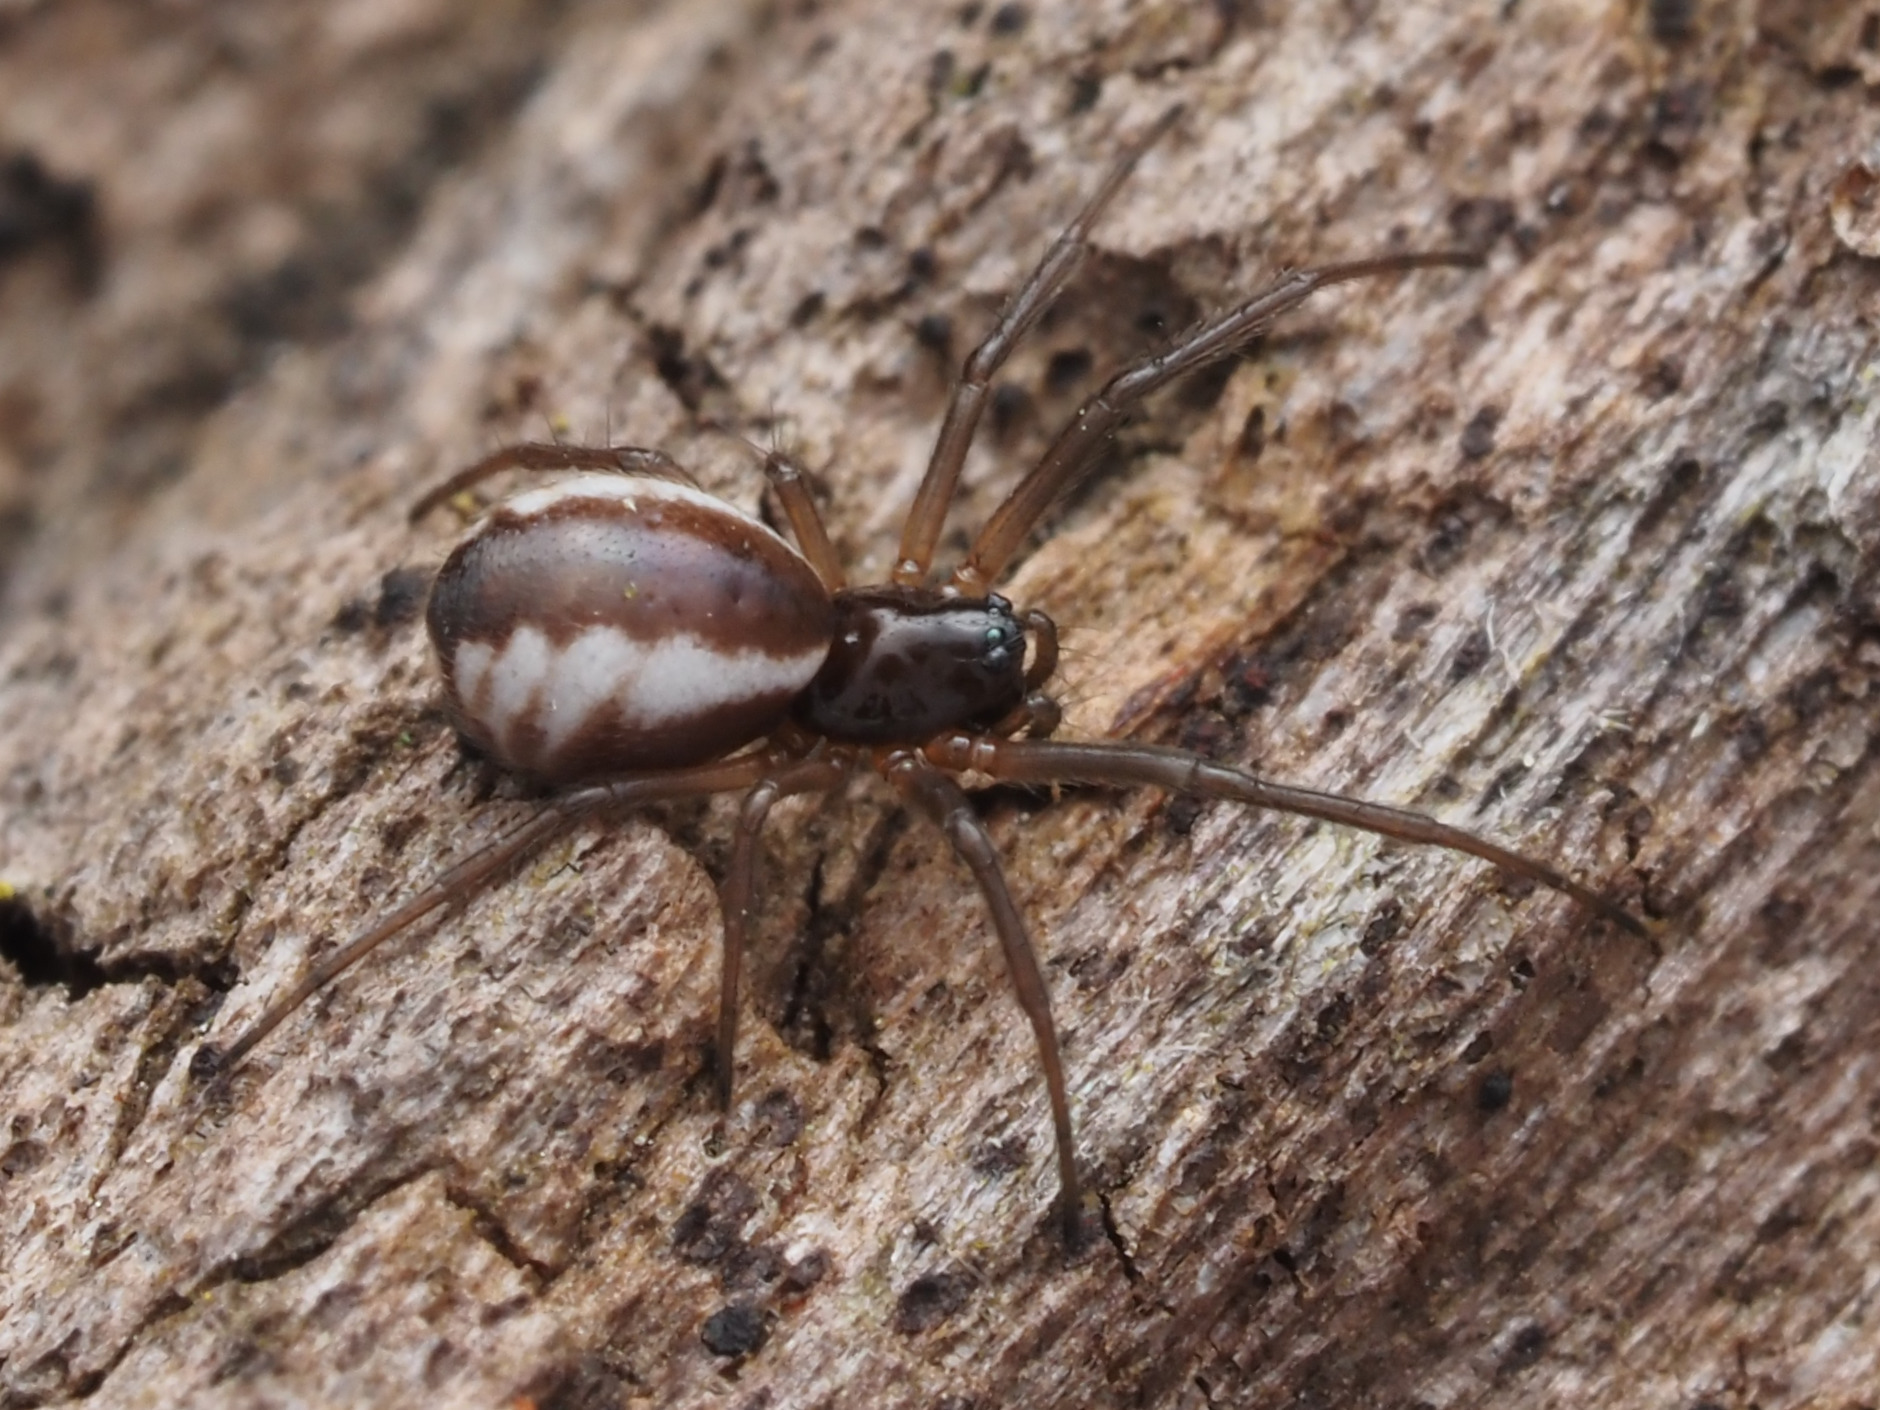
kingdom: Animalia
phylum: Arthropoda
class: Arachnida
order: Araneae
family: Linyphiidae
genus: Frontinella
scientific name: Frontinella pyramitela
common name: Bowl-and-doily spider
